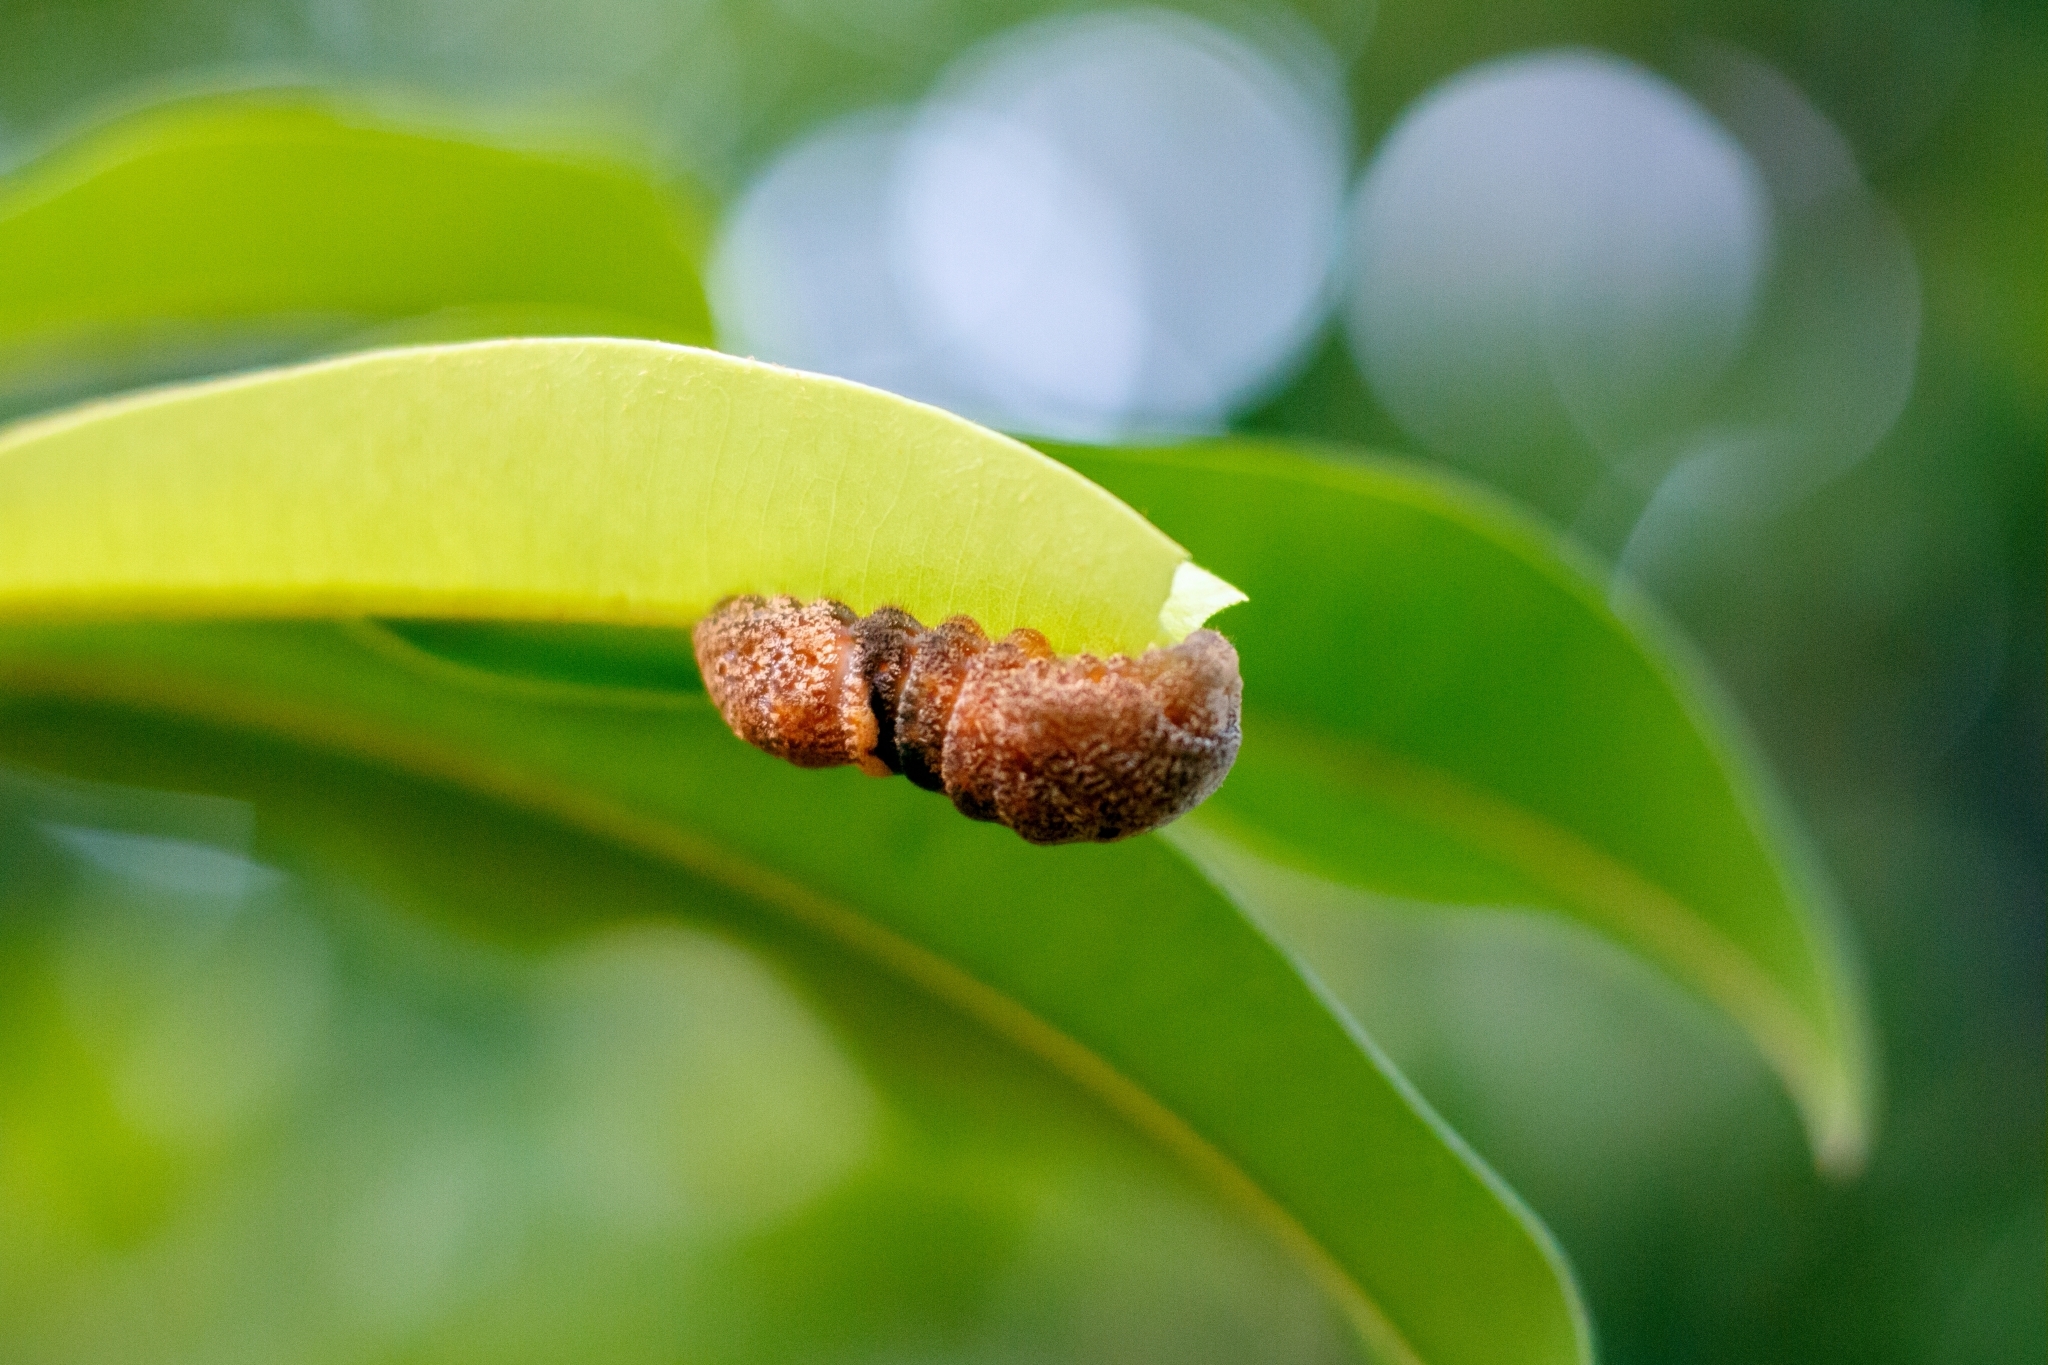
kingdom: Animalia
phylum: Arthropoda
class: Insecta
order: Lepidoptera
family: Lycaenidae
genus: Evenus
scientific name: Evenus regalis
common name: Regal hairstreak
